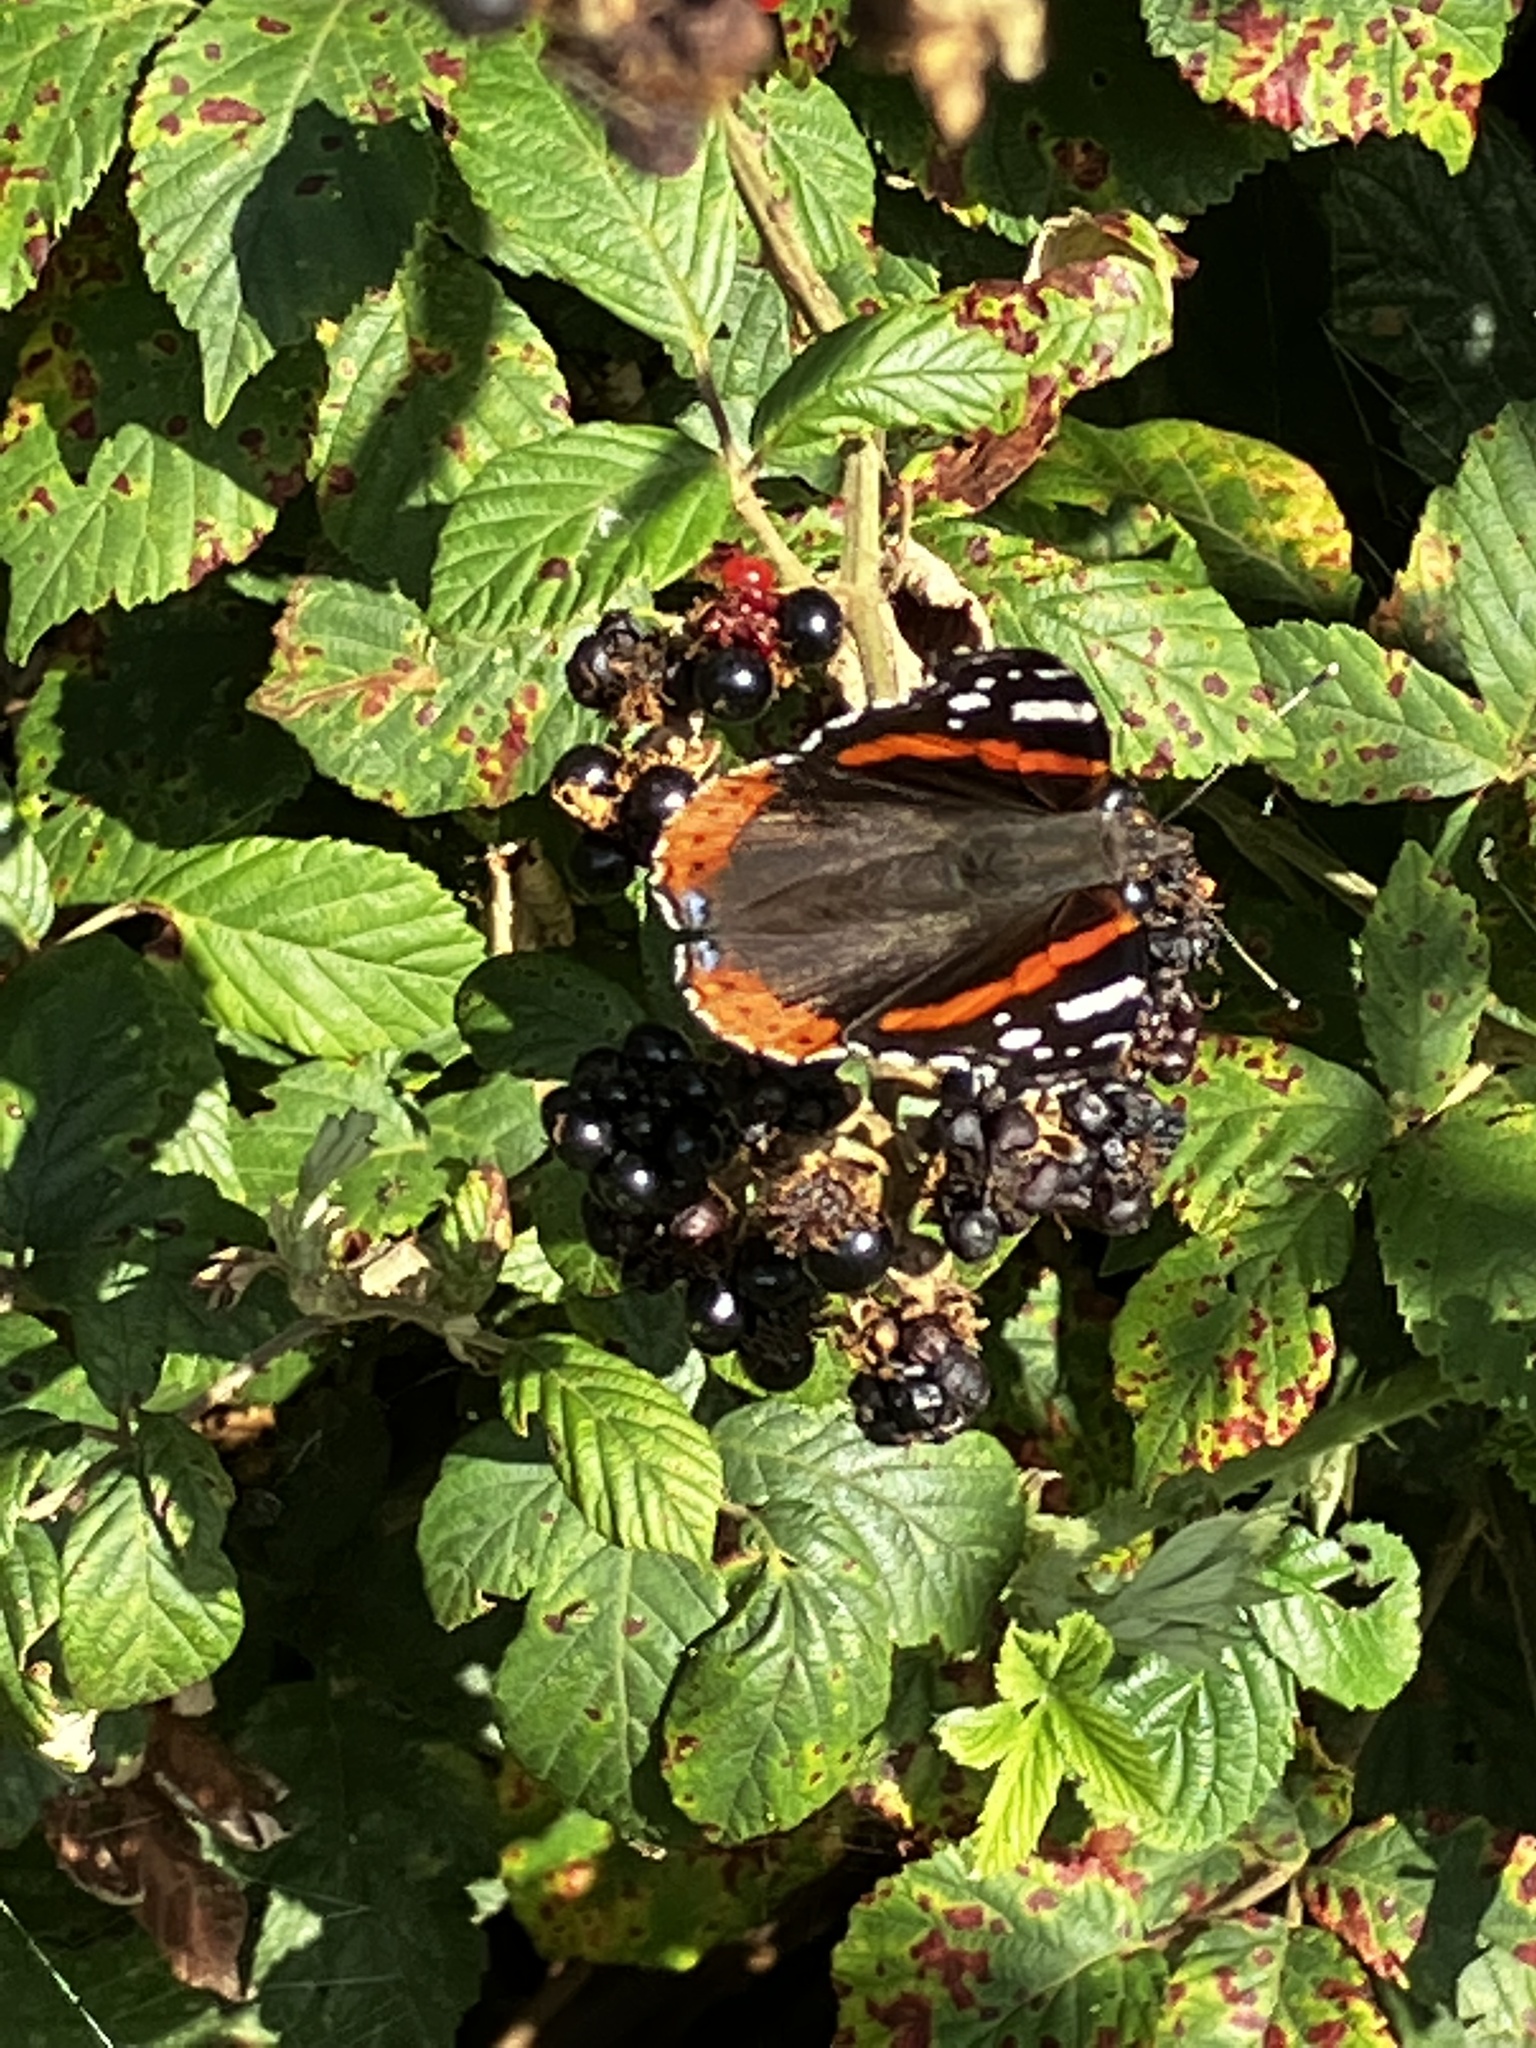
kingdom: Animalia
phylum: Arthropoda
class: Insecta
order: Lepidoptera
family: Nymphalidae
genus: Vanessa
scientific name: Vanessa atalanta
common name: Red admiral
